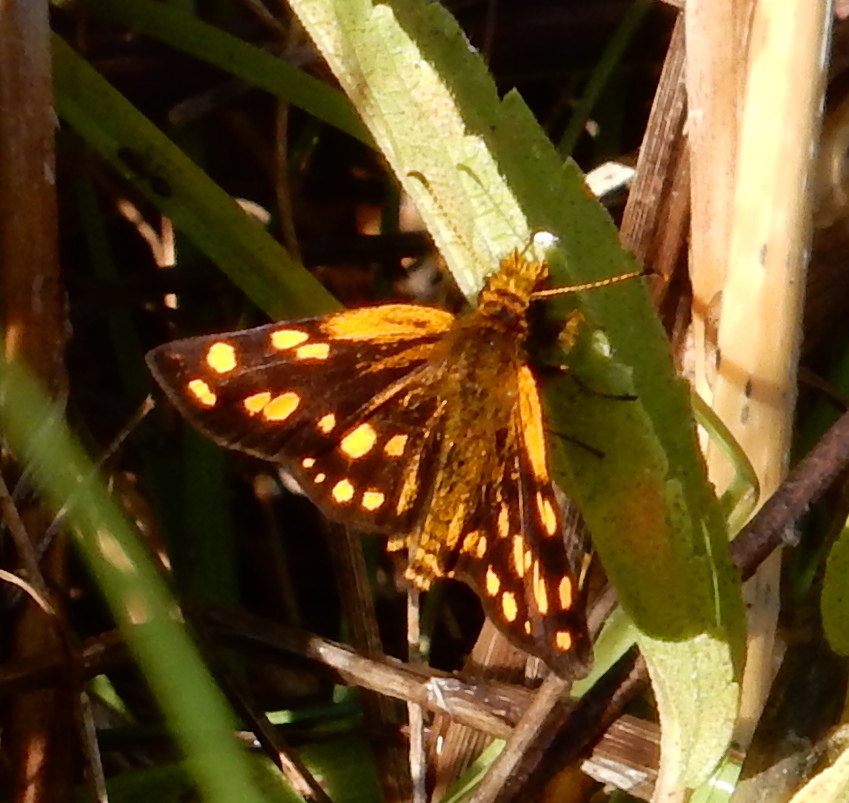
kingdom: Animalia
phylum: Arthropoda
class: Insecta
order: Lepidoptera
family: Hesperiidae
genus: Metisella
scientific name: Metisella metis
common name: Western gold-spotted sylph
